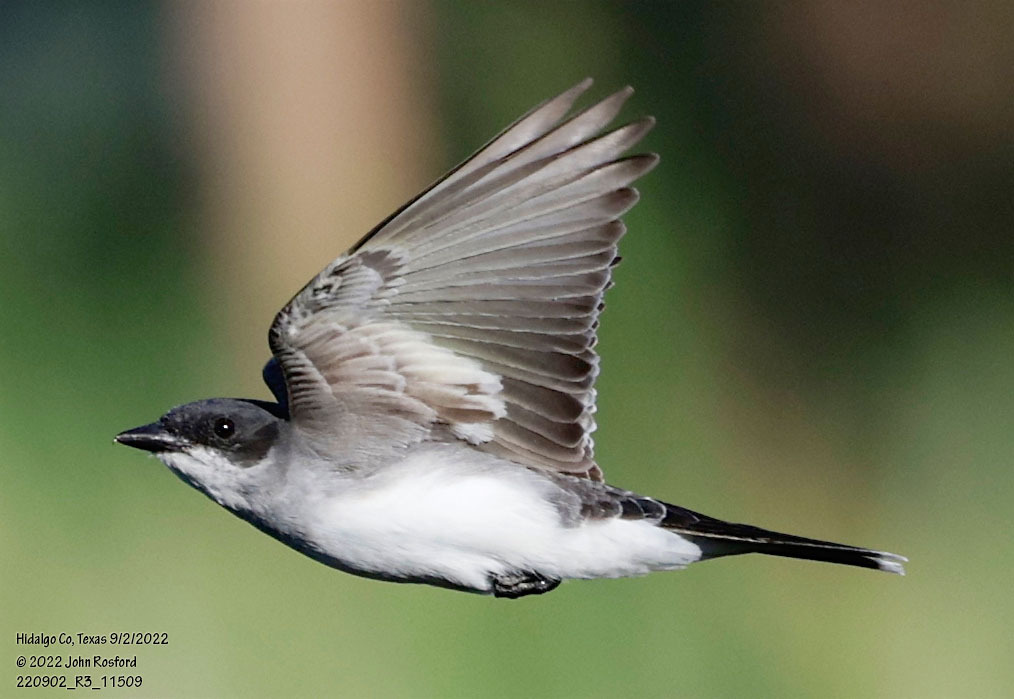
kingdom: Animalia
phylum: Chordata
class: Aves
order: Passeriformes
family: Tyrannidae
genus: Tyrannus
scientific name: Tyrannus tyrannus
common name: Eastern kingbird
